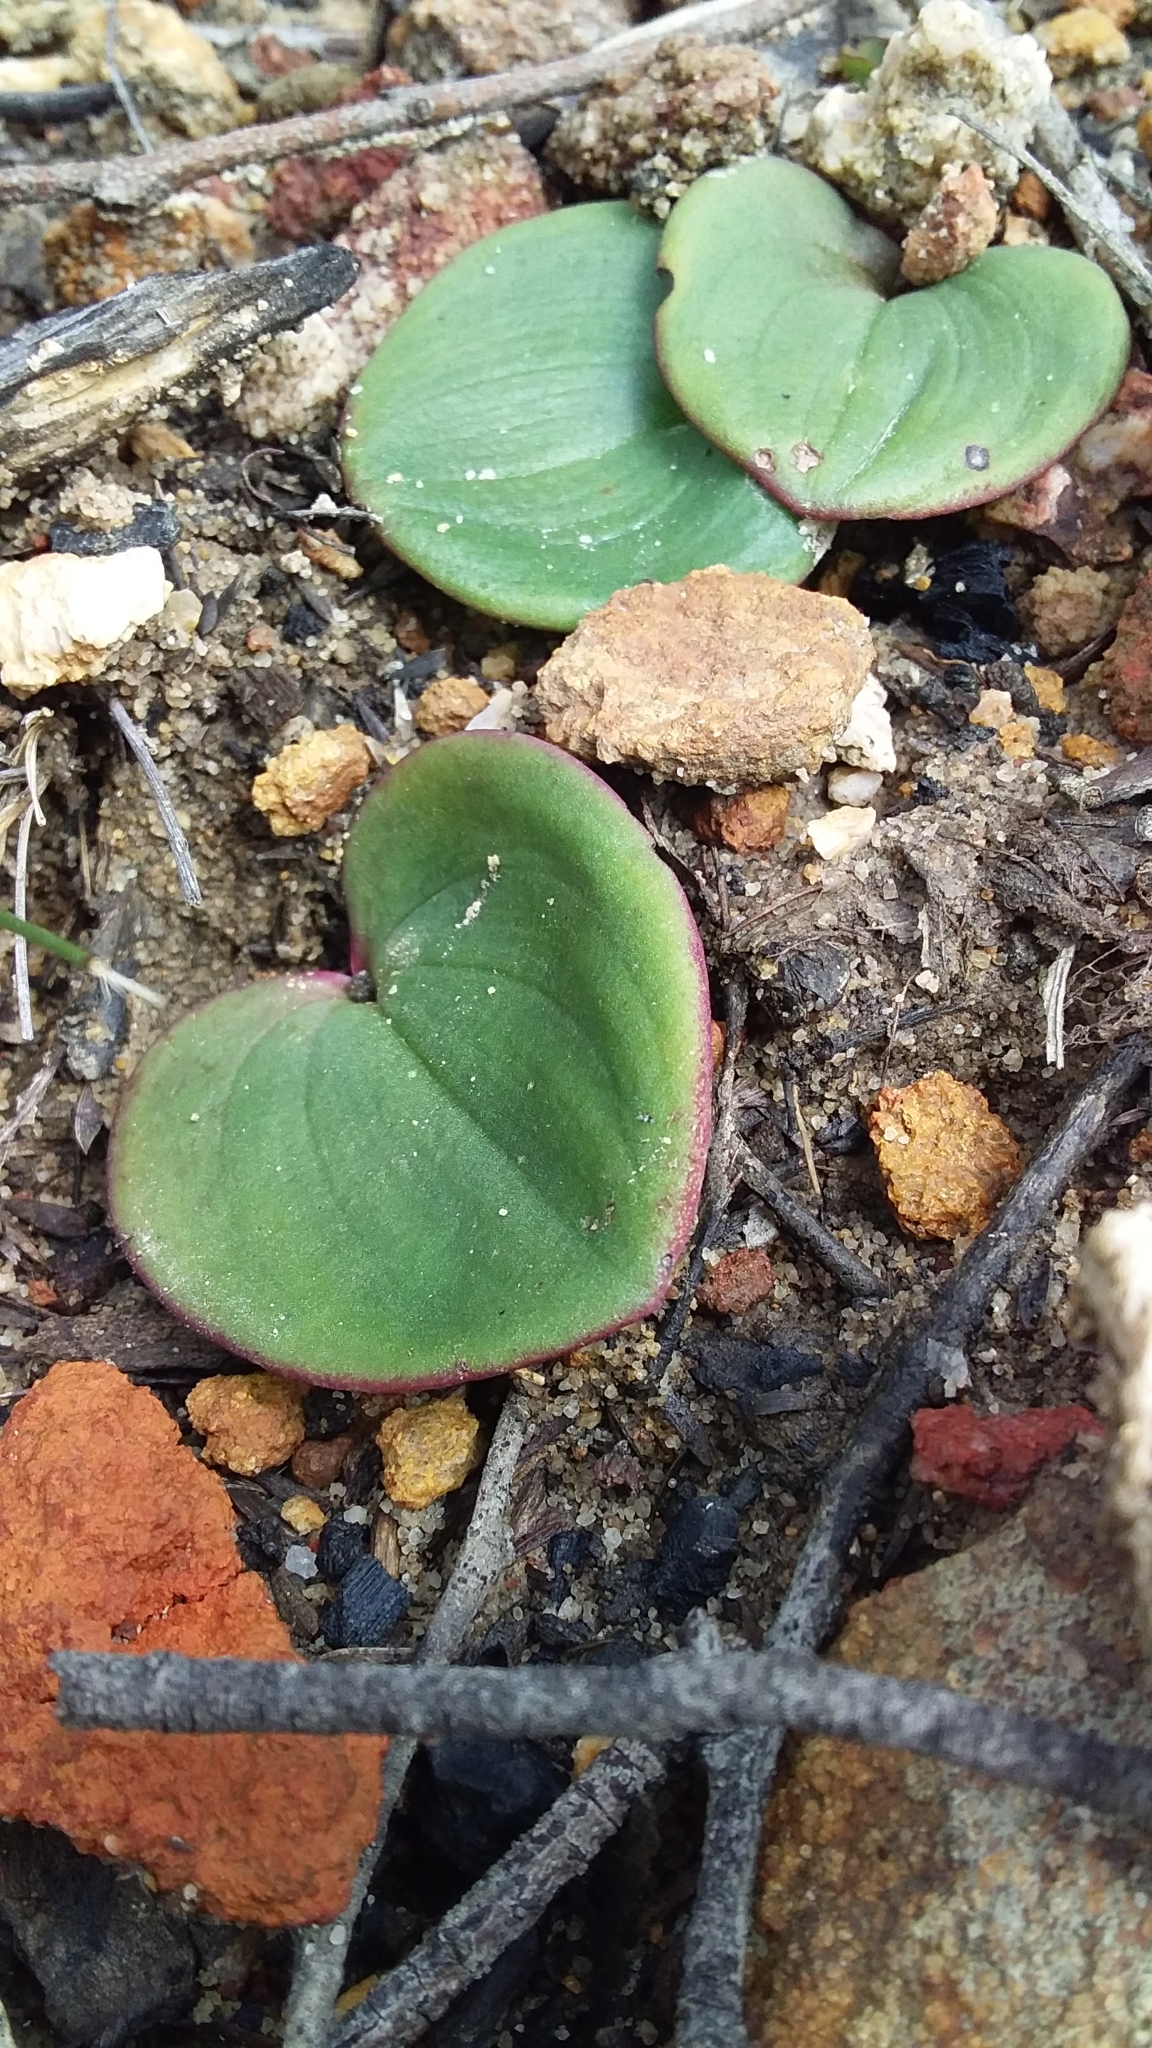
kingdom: Plantae
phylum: Tracheophyta
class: Liliopsida
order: Asparagales
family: Orchidaceae
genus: Pyrorchis
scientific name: Pyrorchis nigricans
